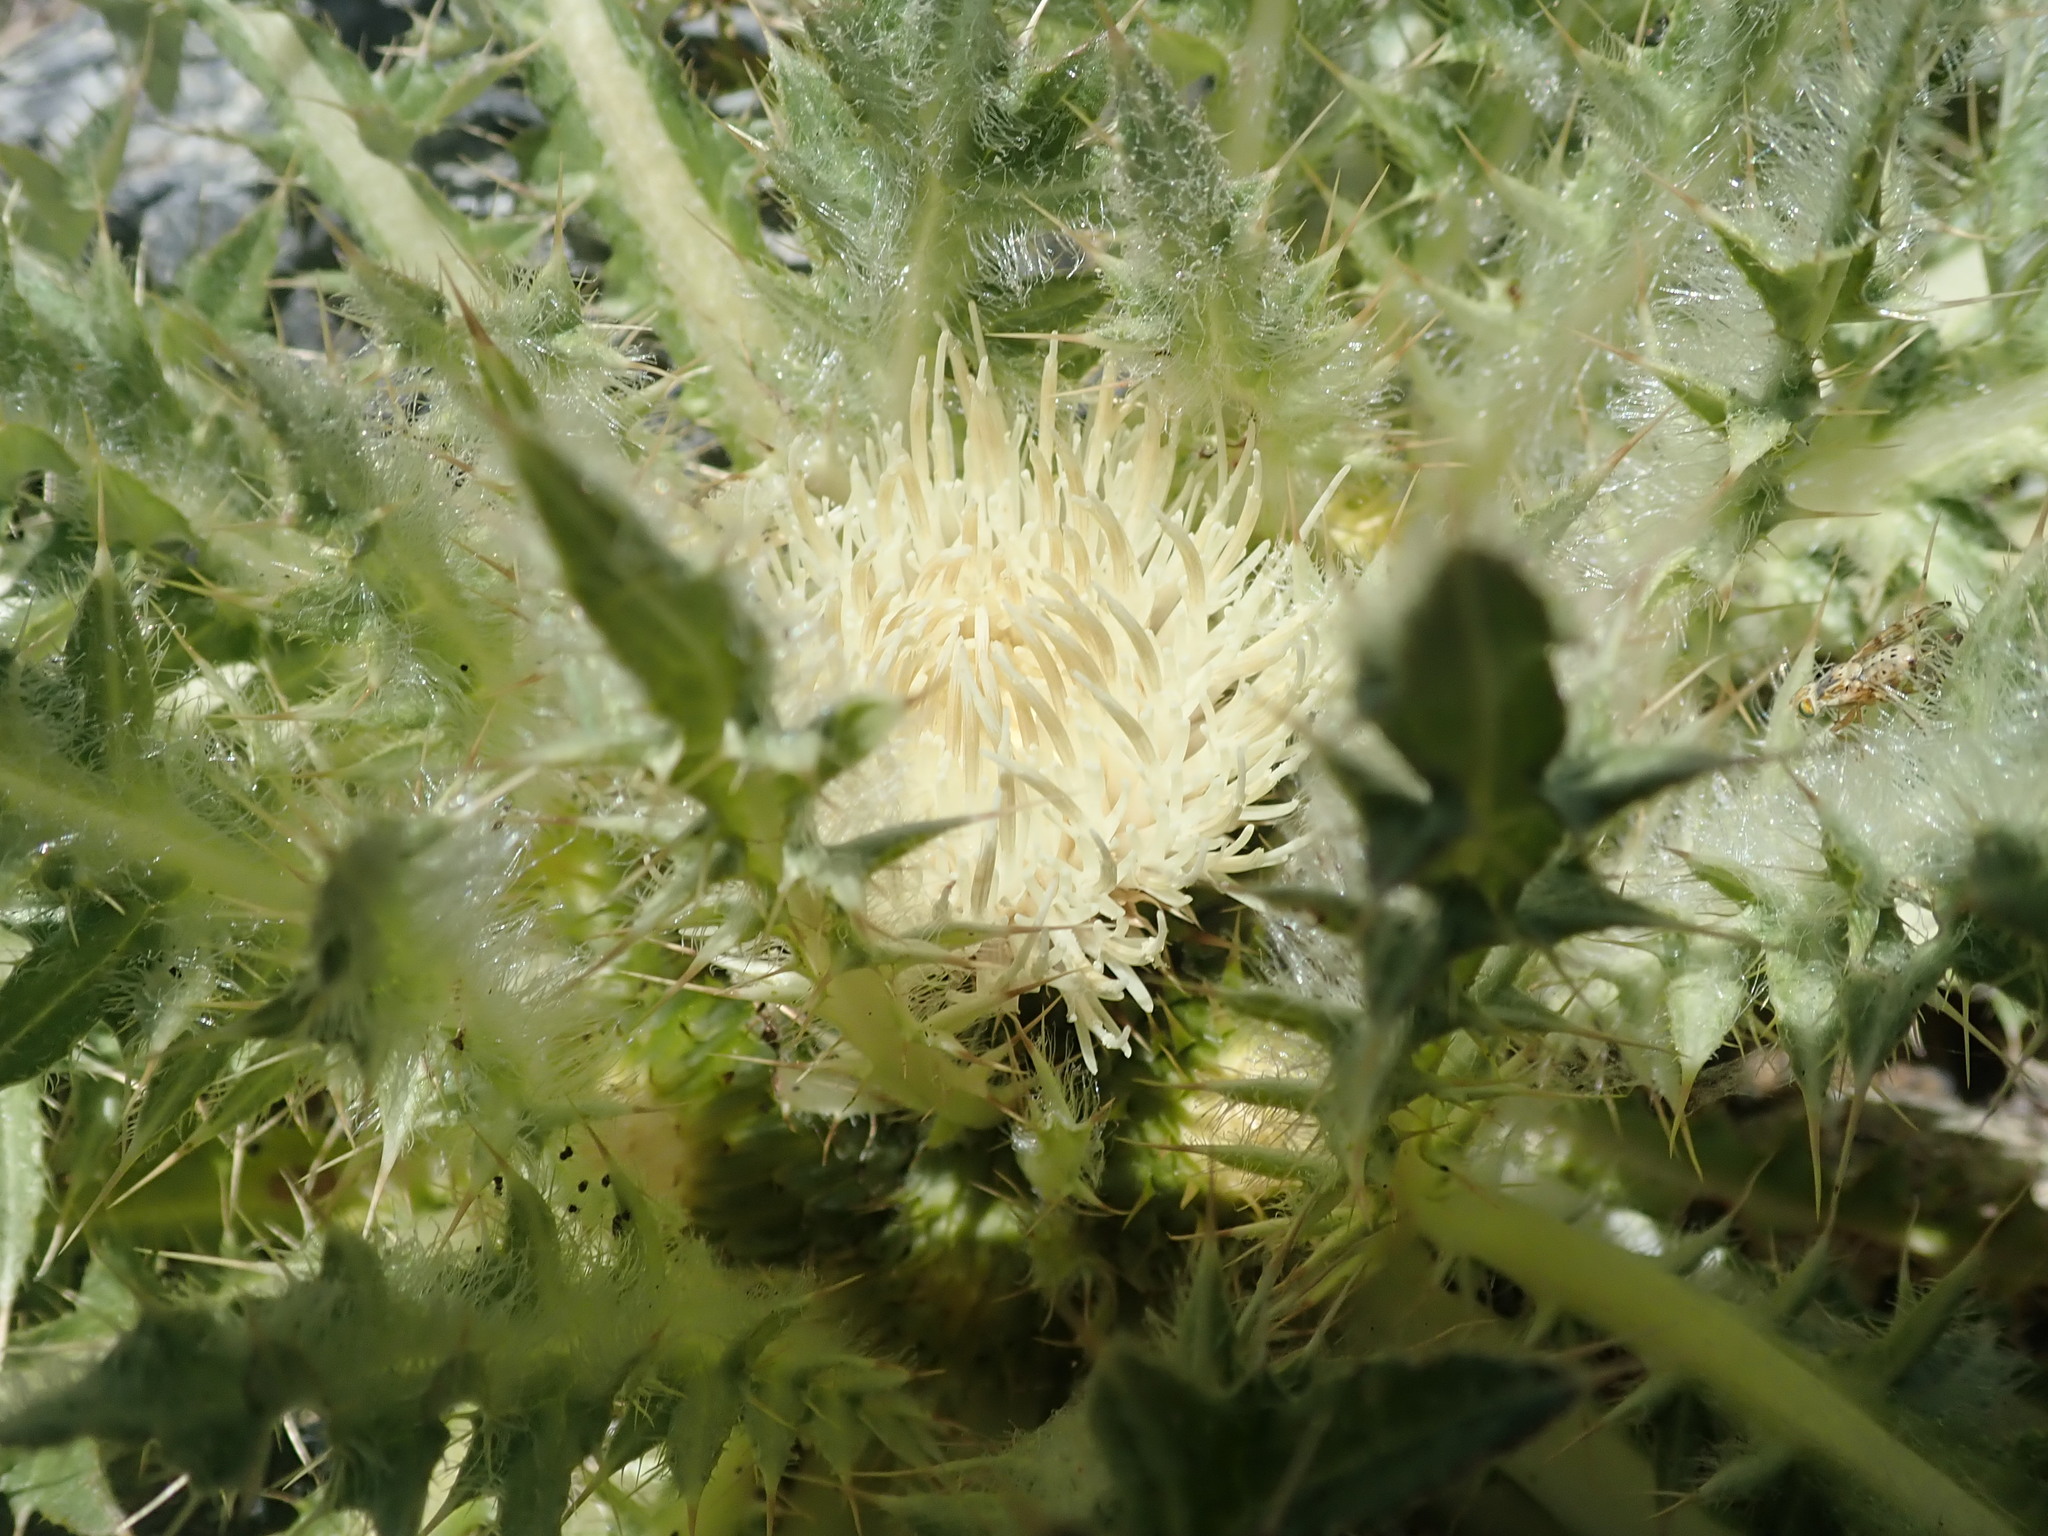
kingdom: Plantae
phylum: Tracheophyta
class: Magnoliopsida
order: Asterales
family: Asteraceae
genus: Cirsium
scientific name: Cirsium scariosum
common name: Meadow thistle
